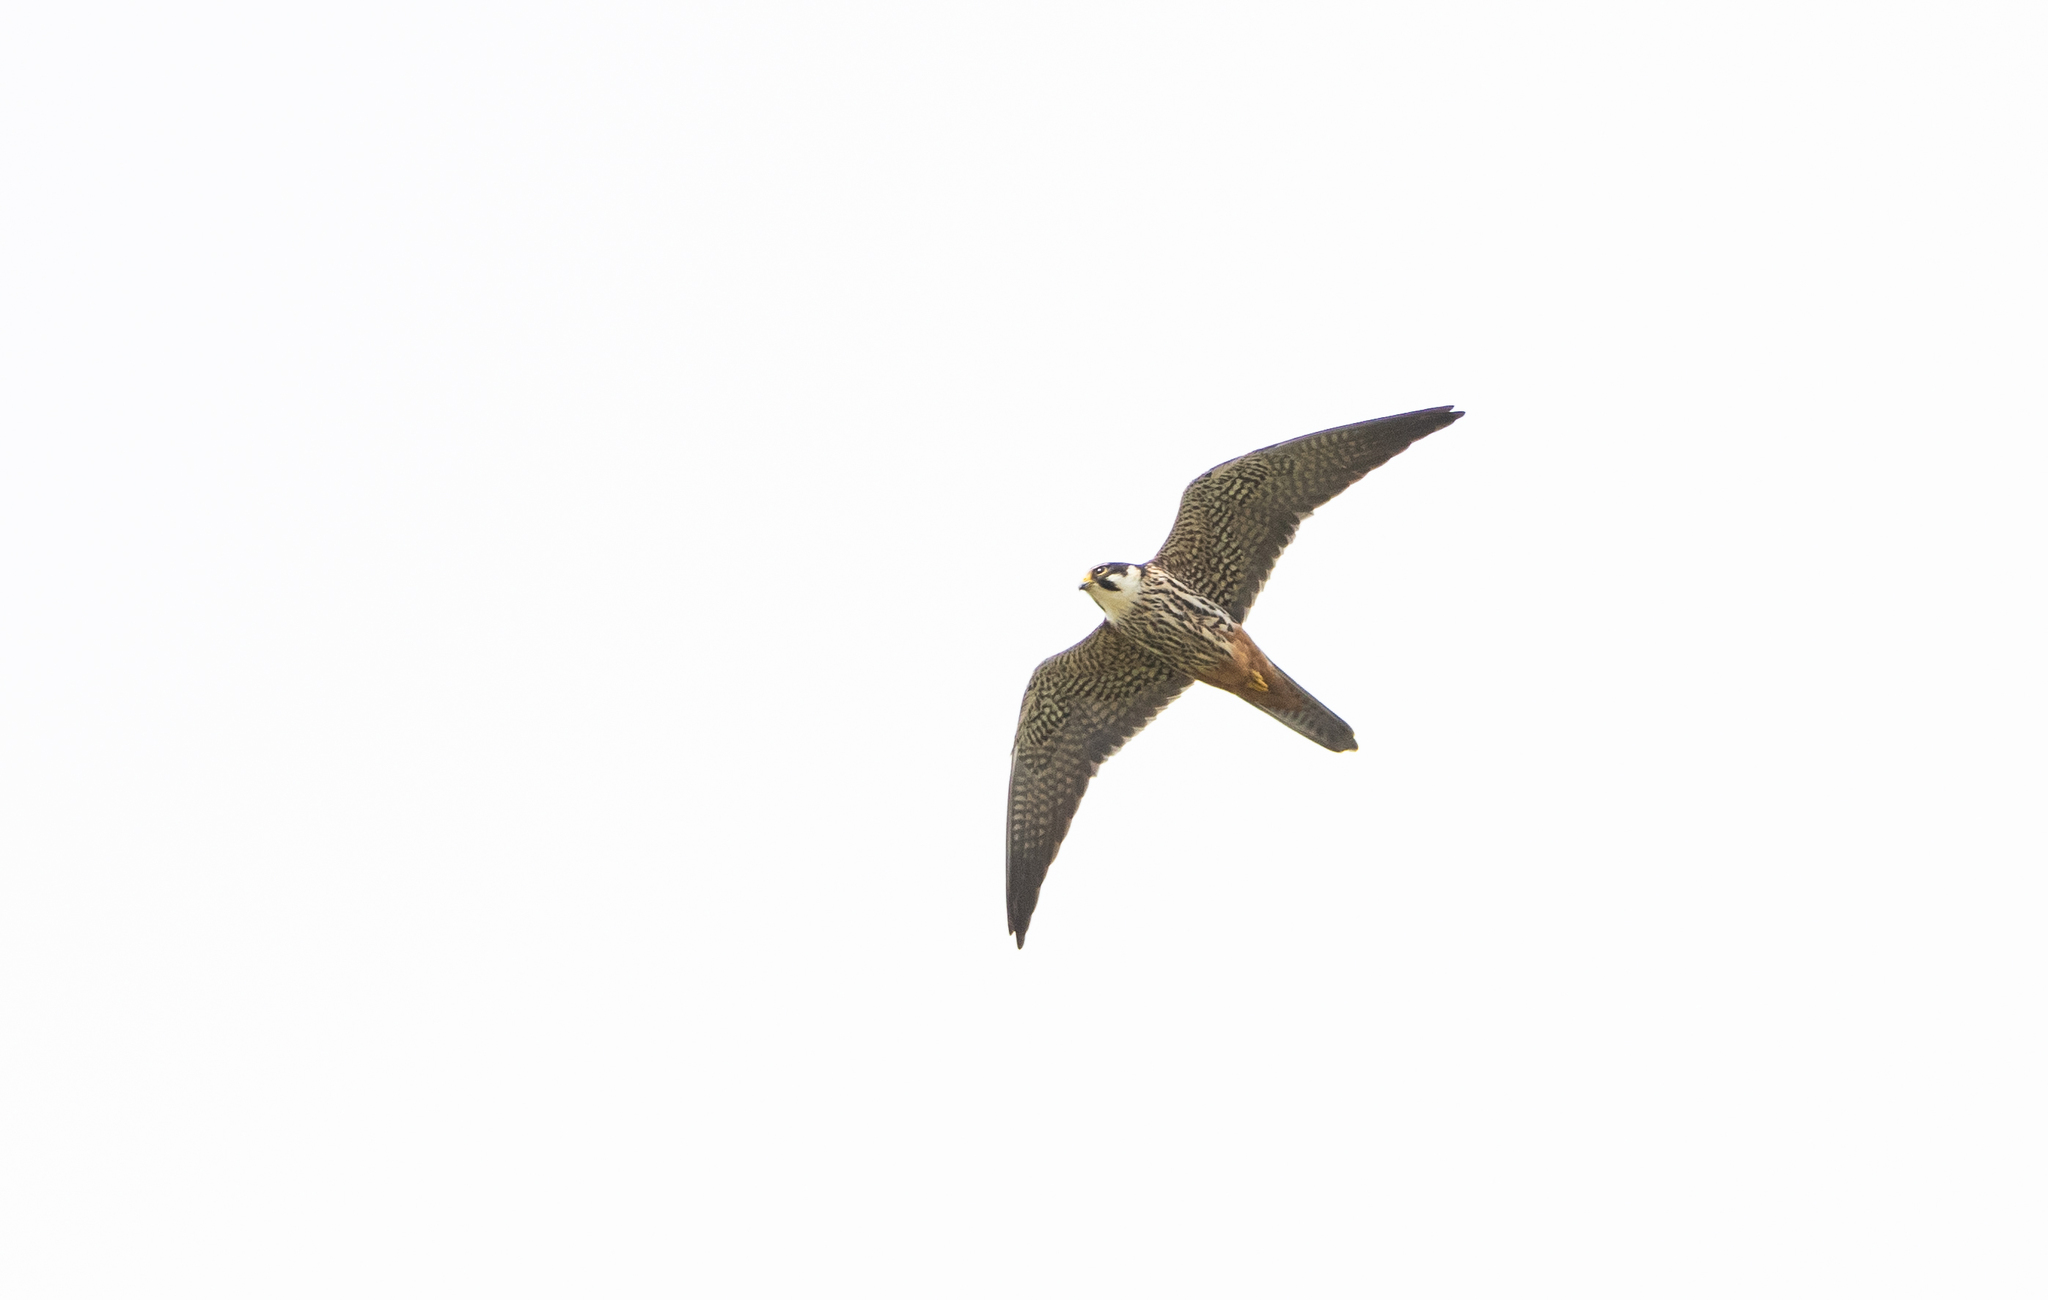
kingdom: Animalia
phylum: Chordata
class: Aves
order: Falconiformes
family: Falconidae
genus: Falco
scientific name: Falco subbuteo
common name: Eurasian hobby
